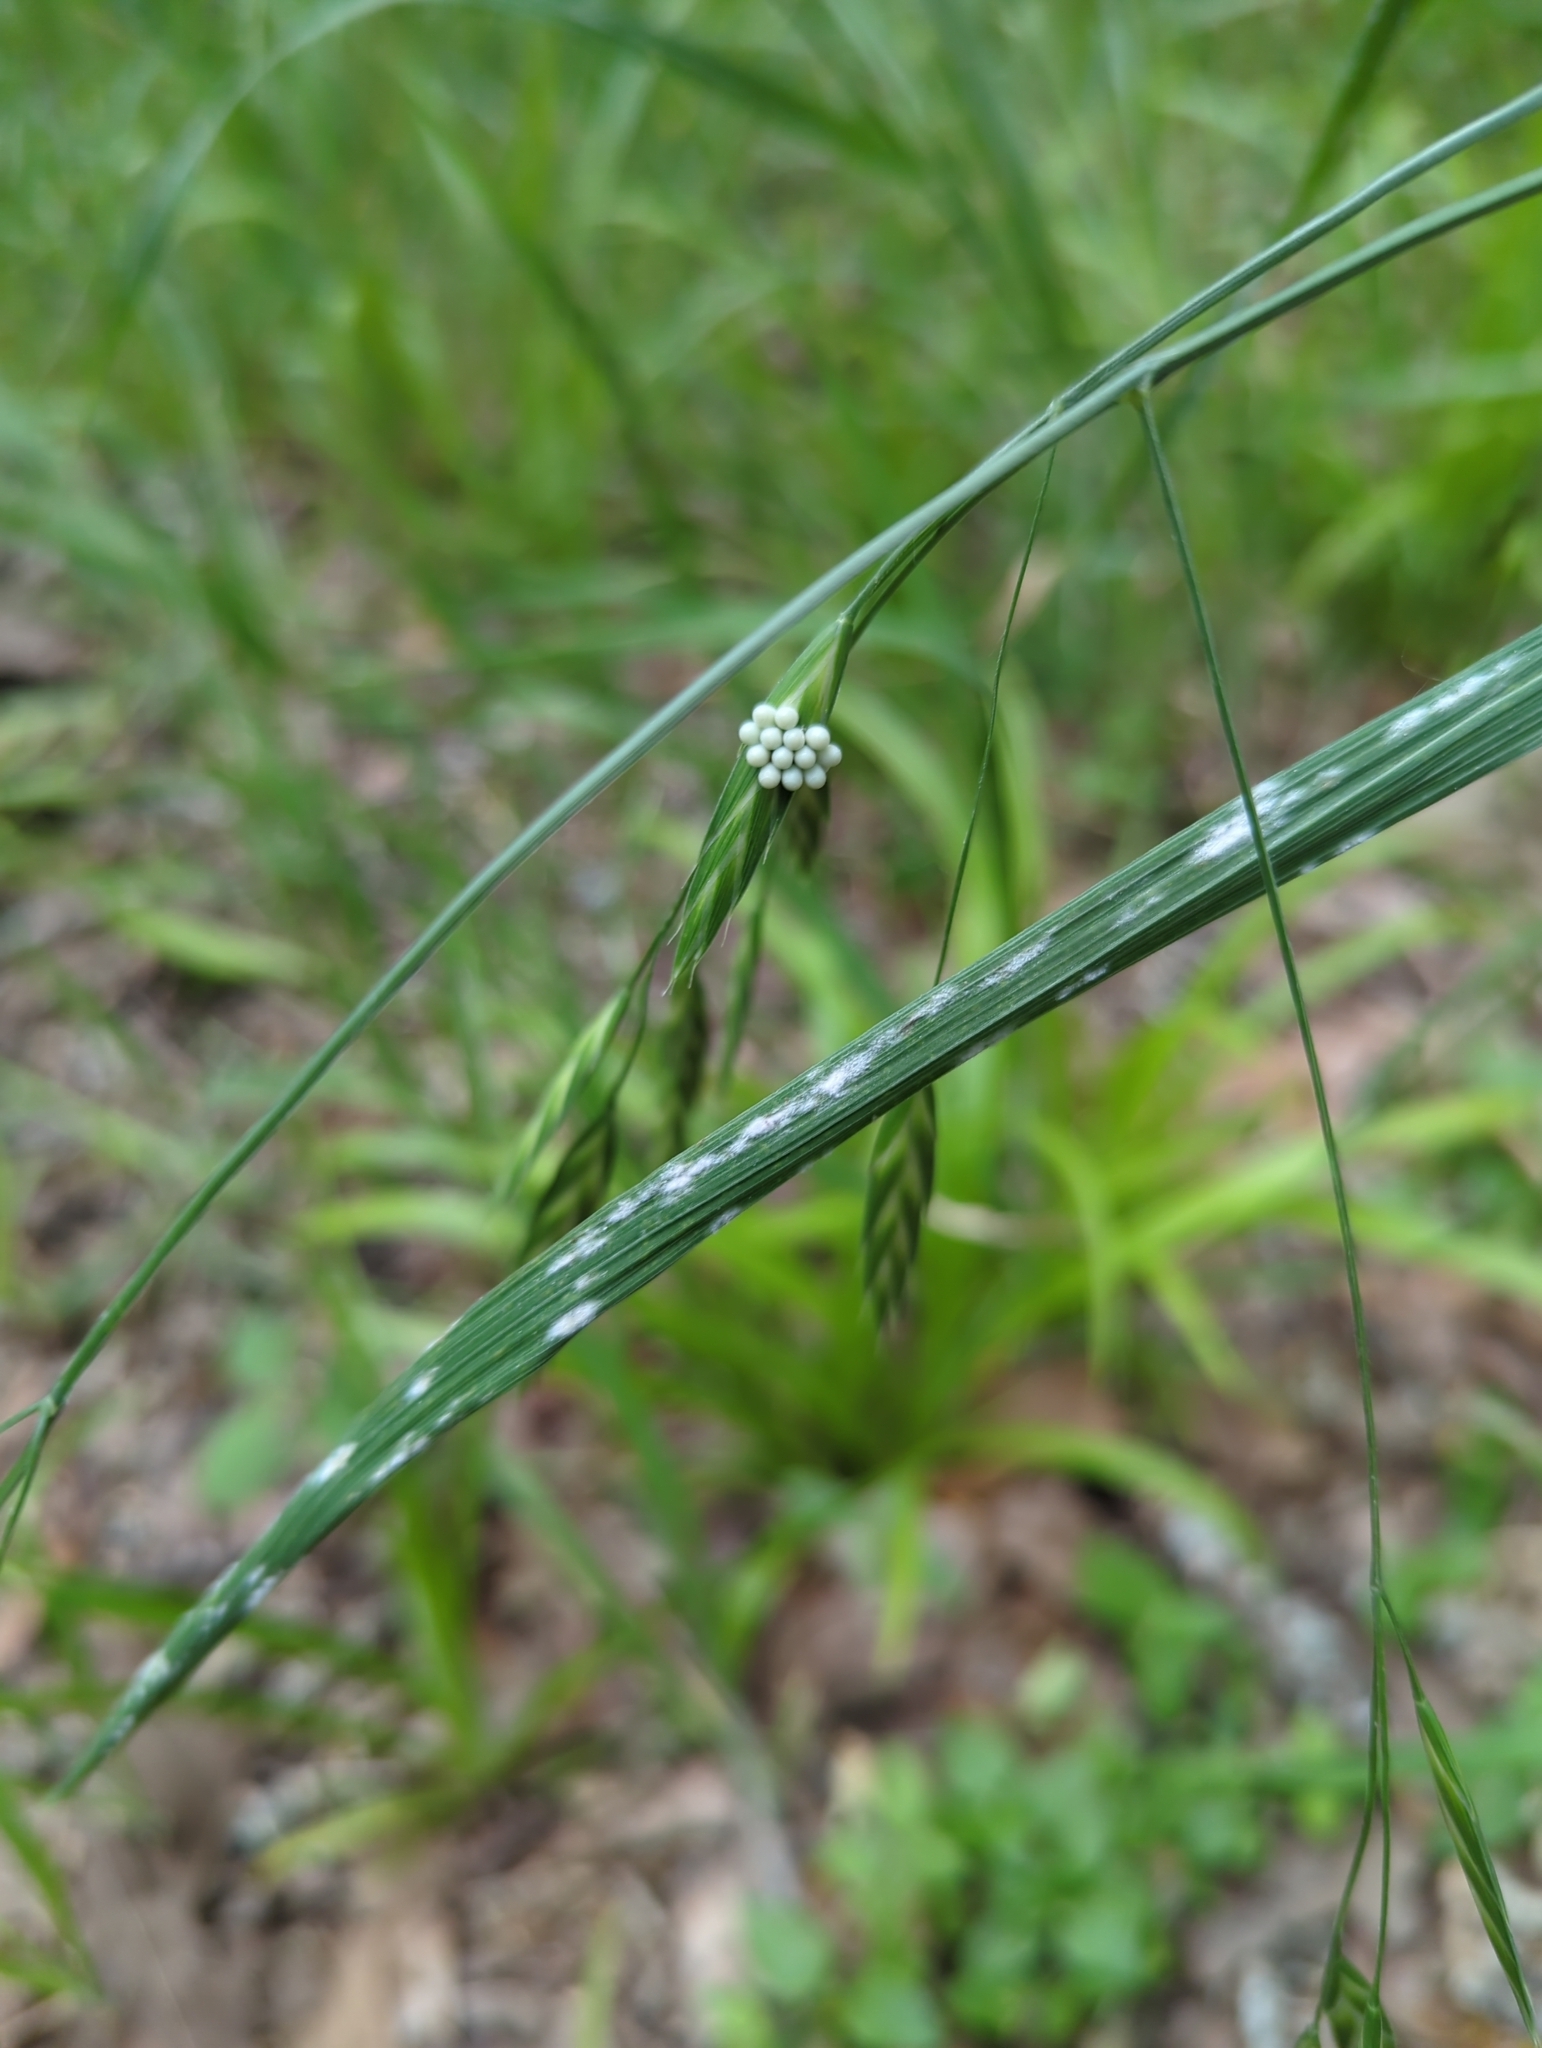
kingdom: Fungi
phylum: Ascomycota
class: Leotiomycetes
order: Helotiales
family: Erysiphaceae
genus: Blumeria
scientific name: Blumeria bromi-cathartici
